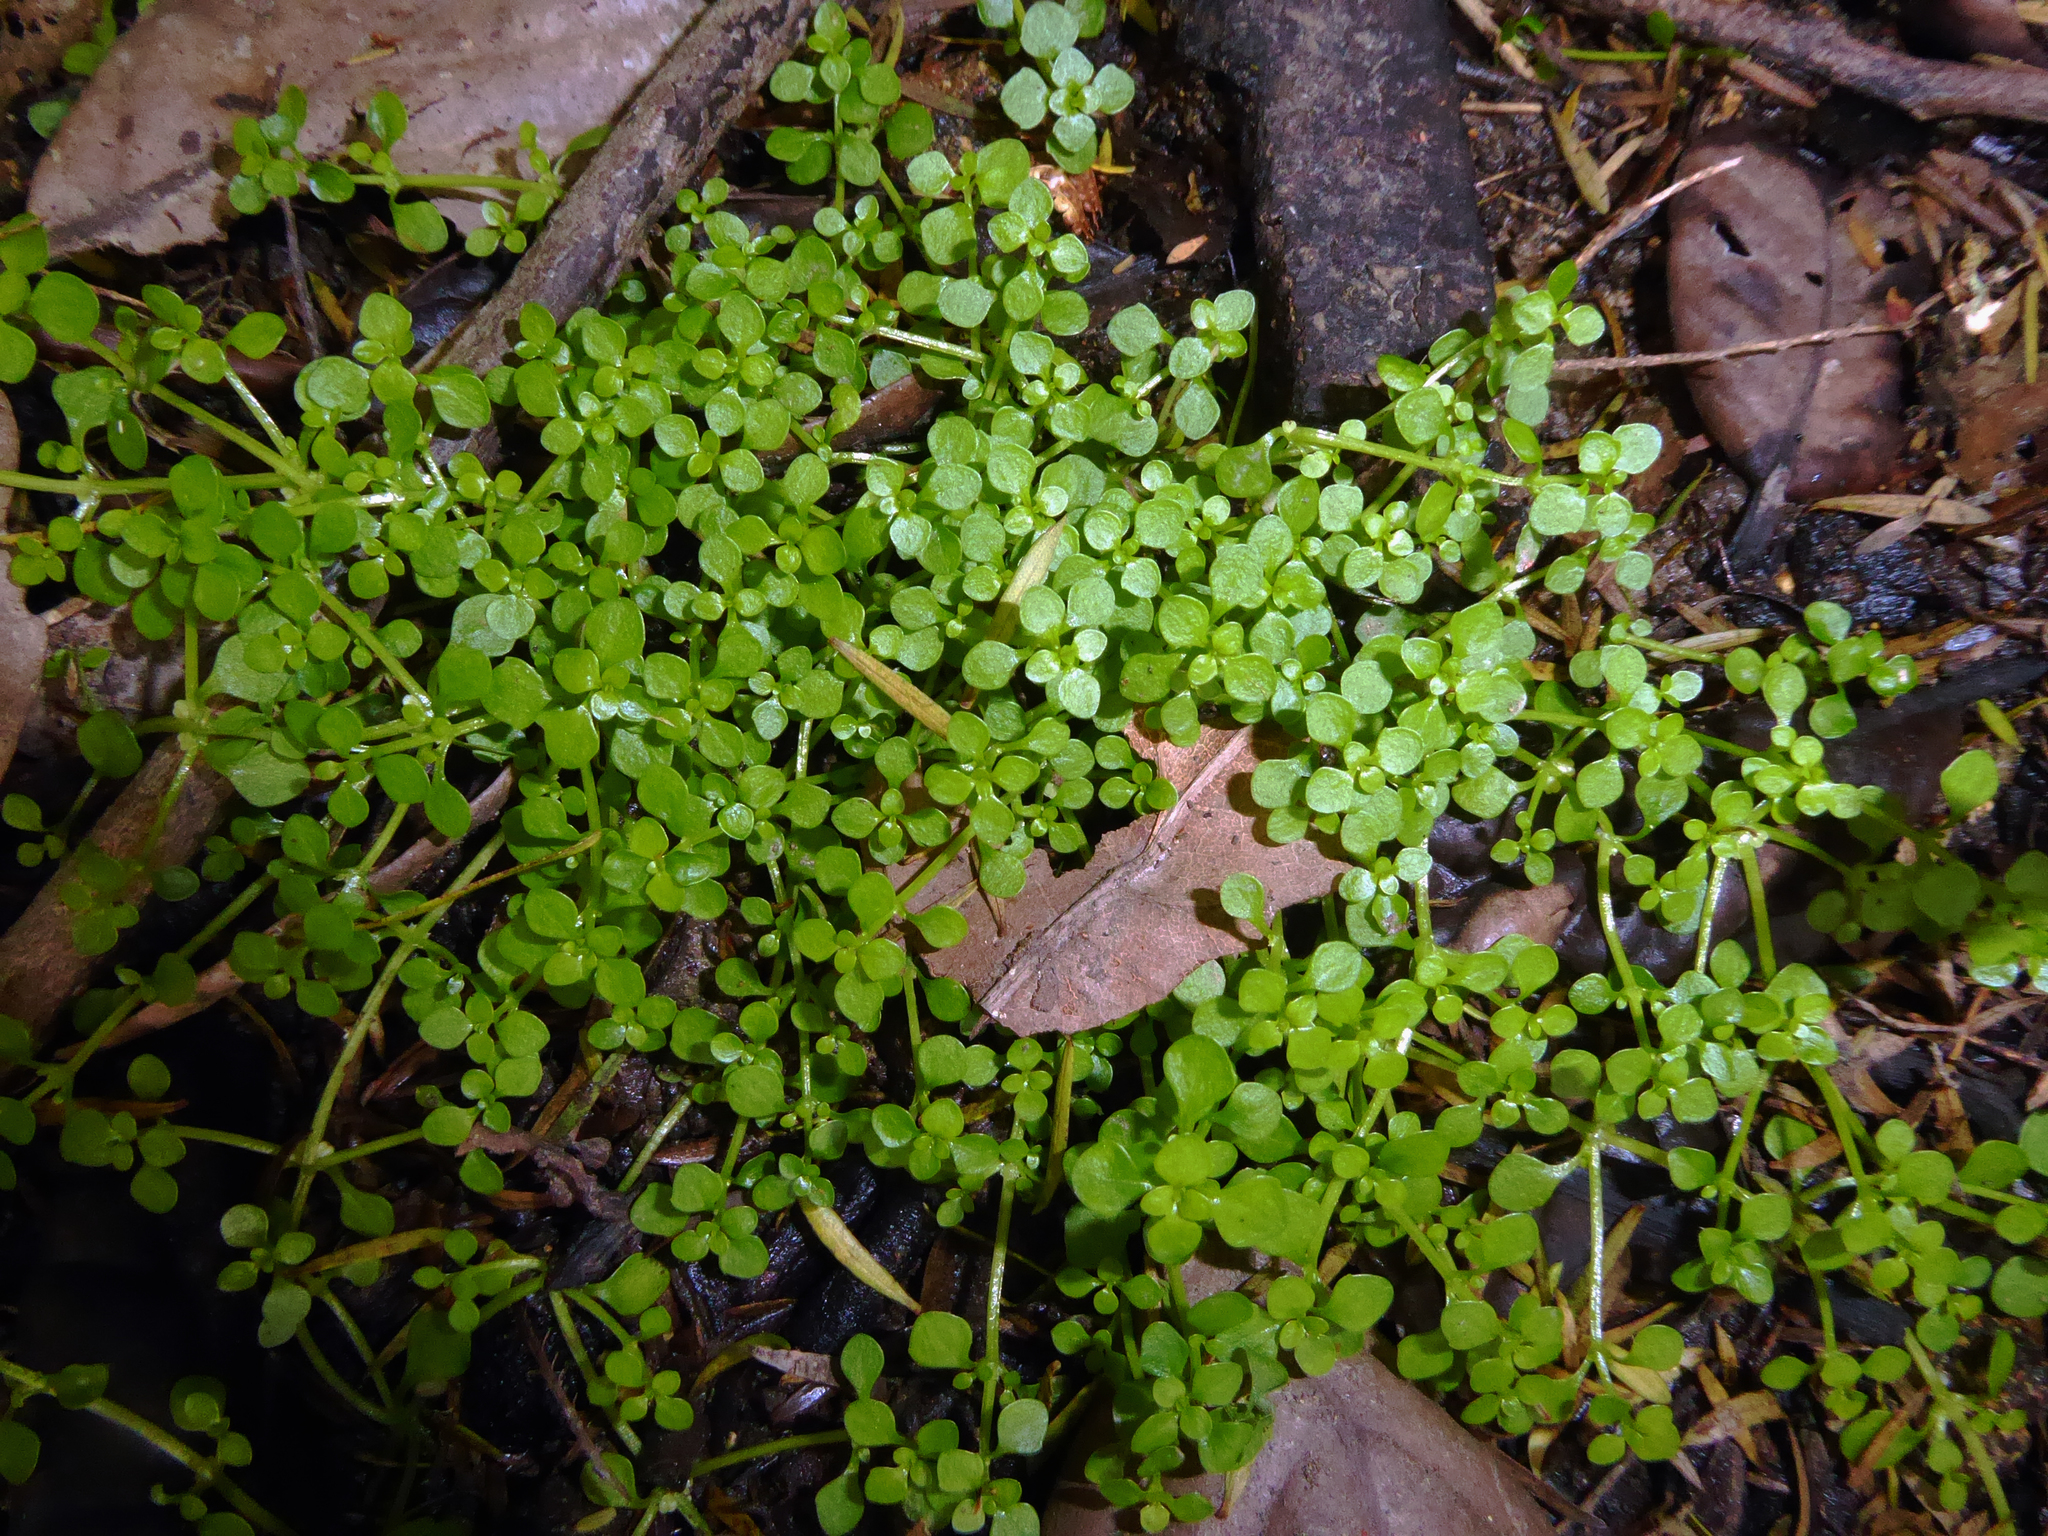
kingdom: Plantae
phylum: Tracheophyta
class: Magnoliopsida
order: Lamiales
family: Plantaginaceae
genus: Callitriche
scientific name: Callitriche muelleri
